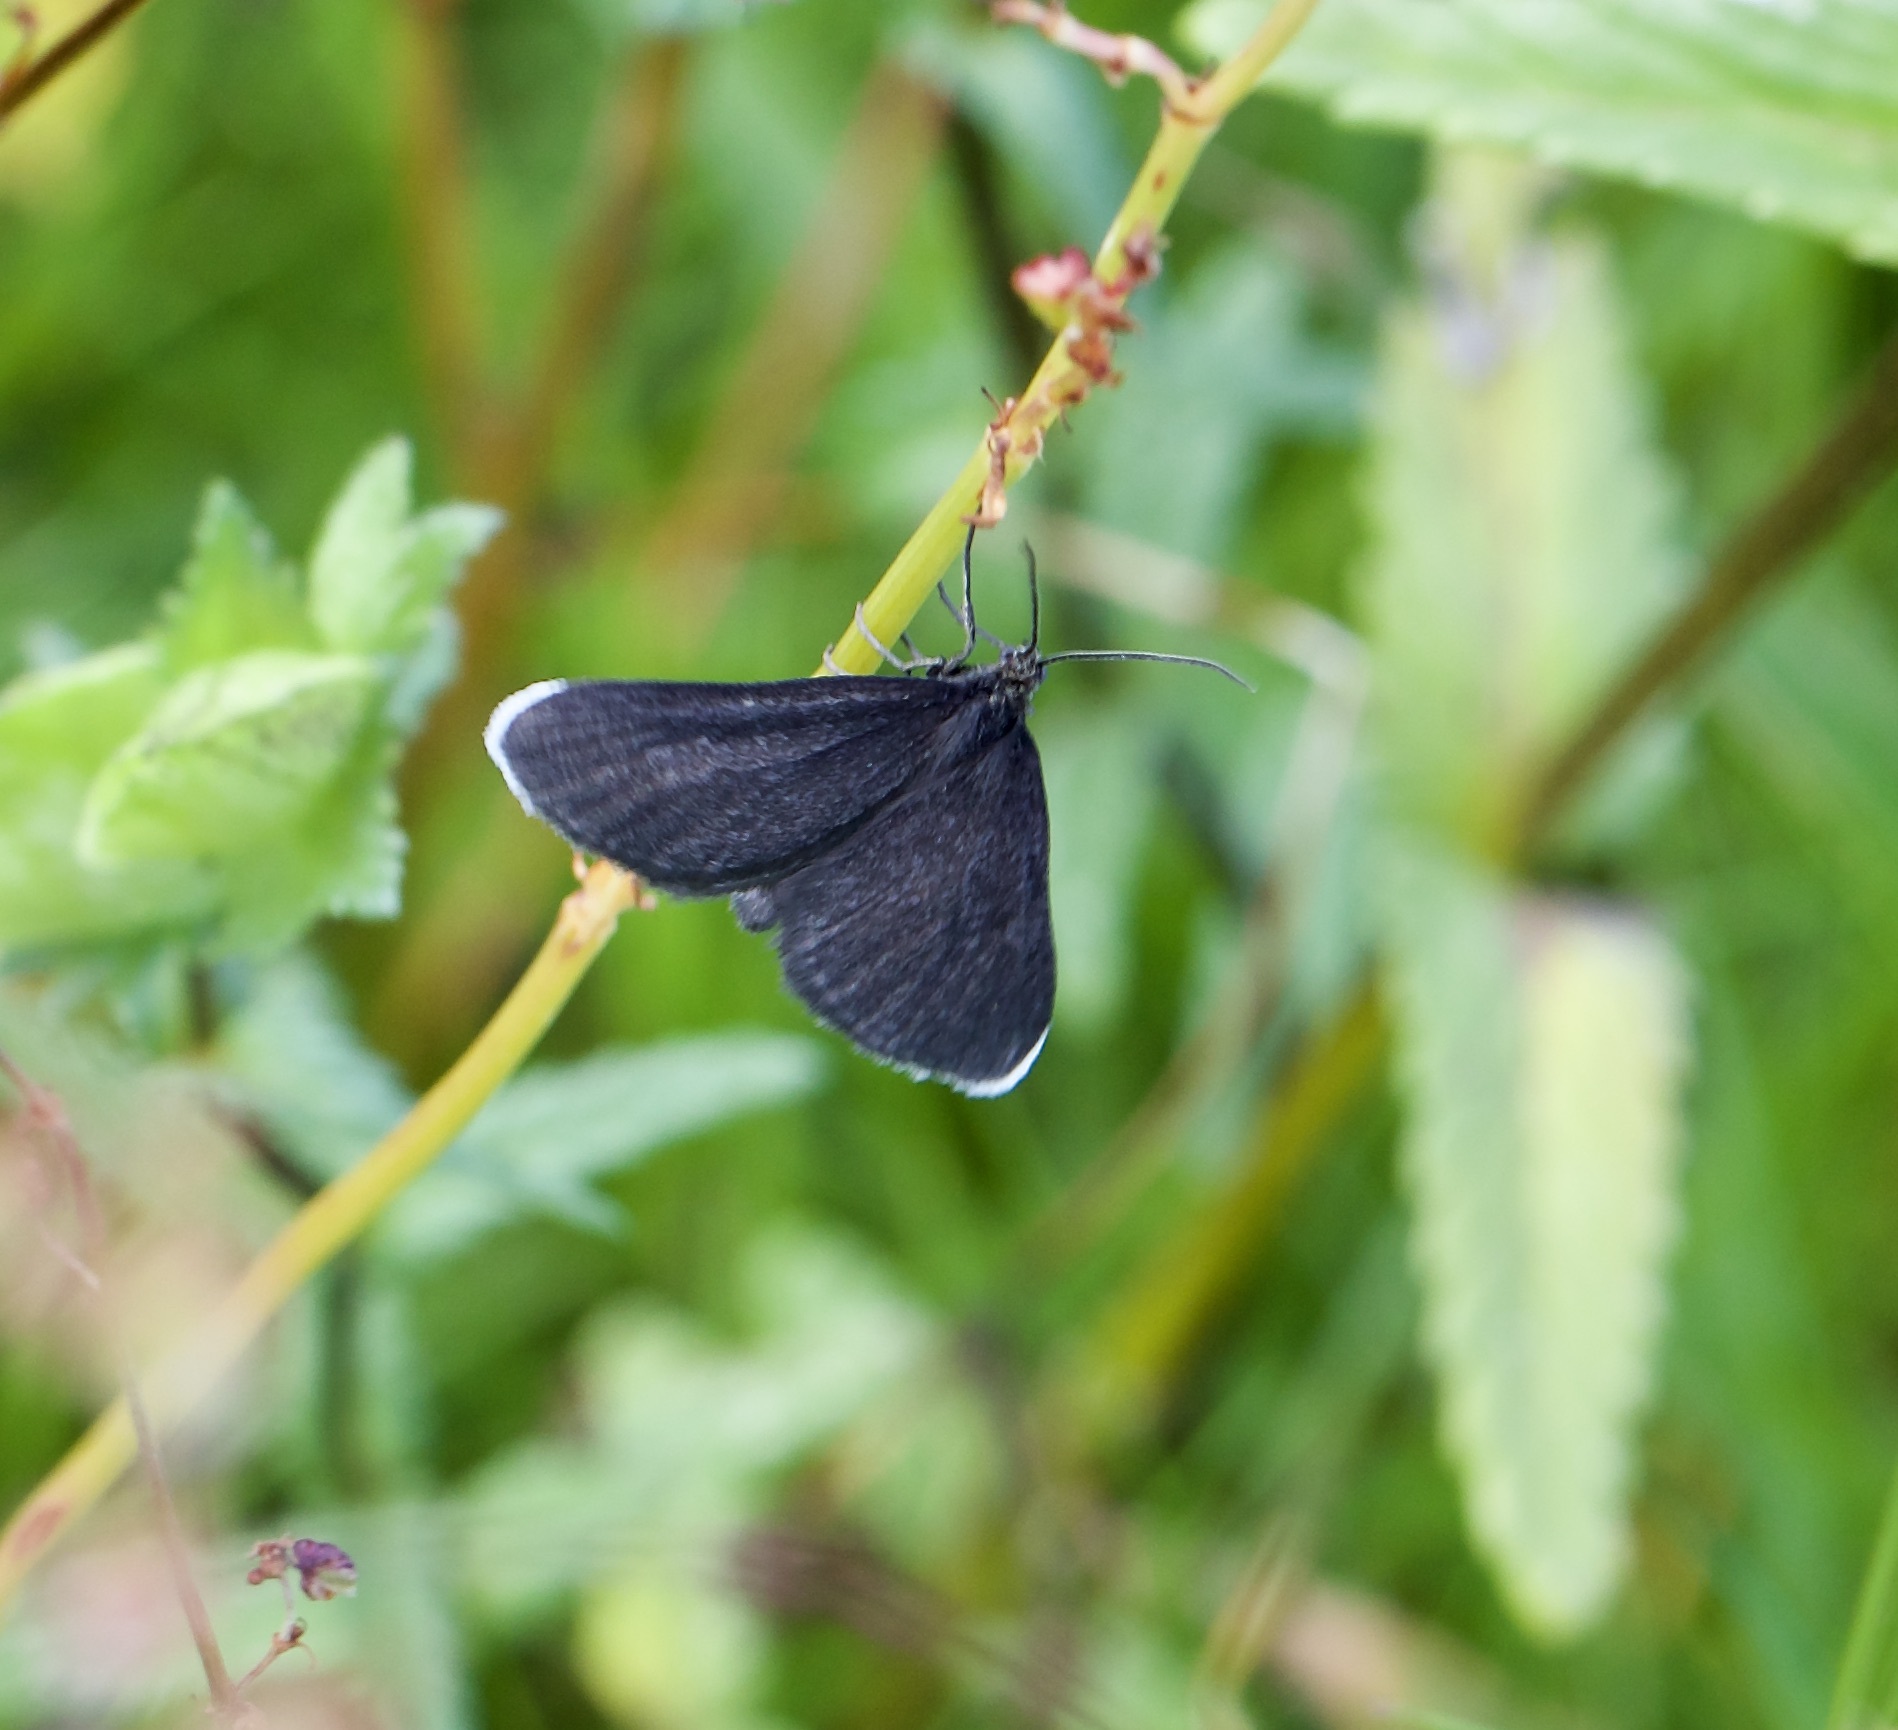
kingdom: Animalia
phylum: Arthropoda
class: Insecta
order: Lepidoptera
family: Geometridae
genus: Odezia
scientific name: Odezia atrata
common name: Chimney sweeper
